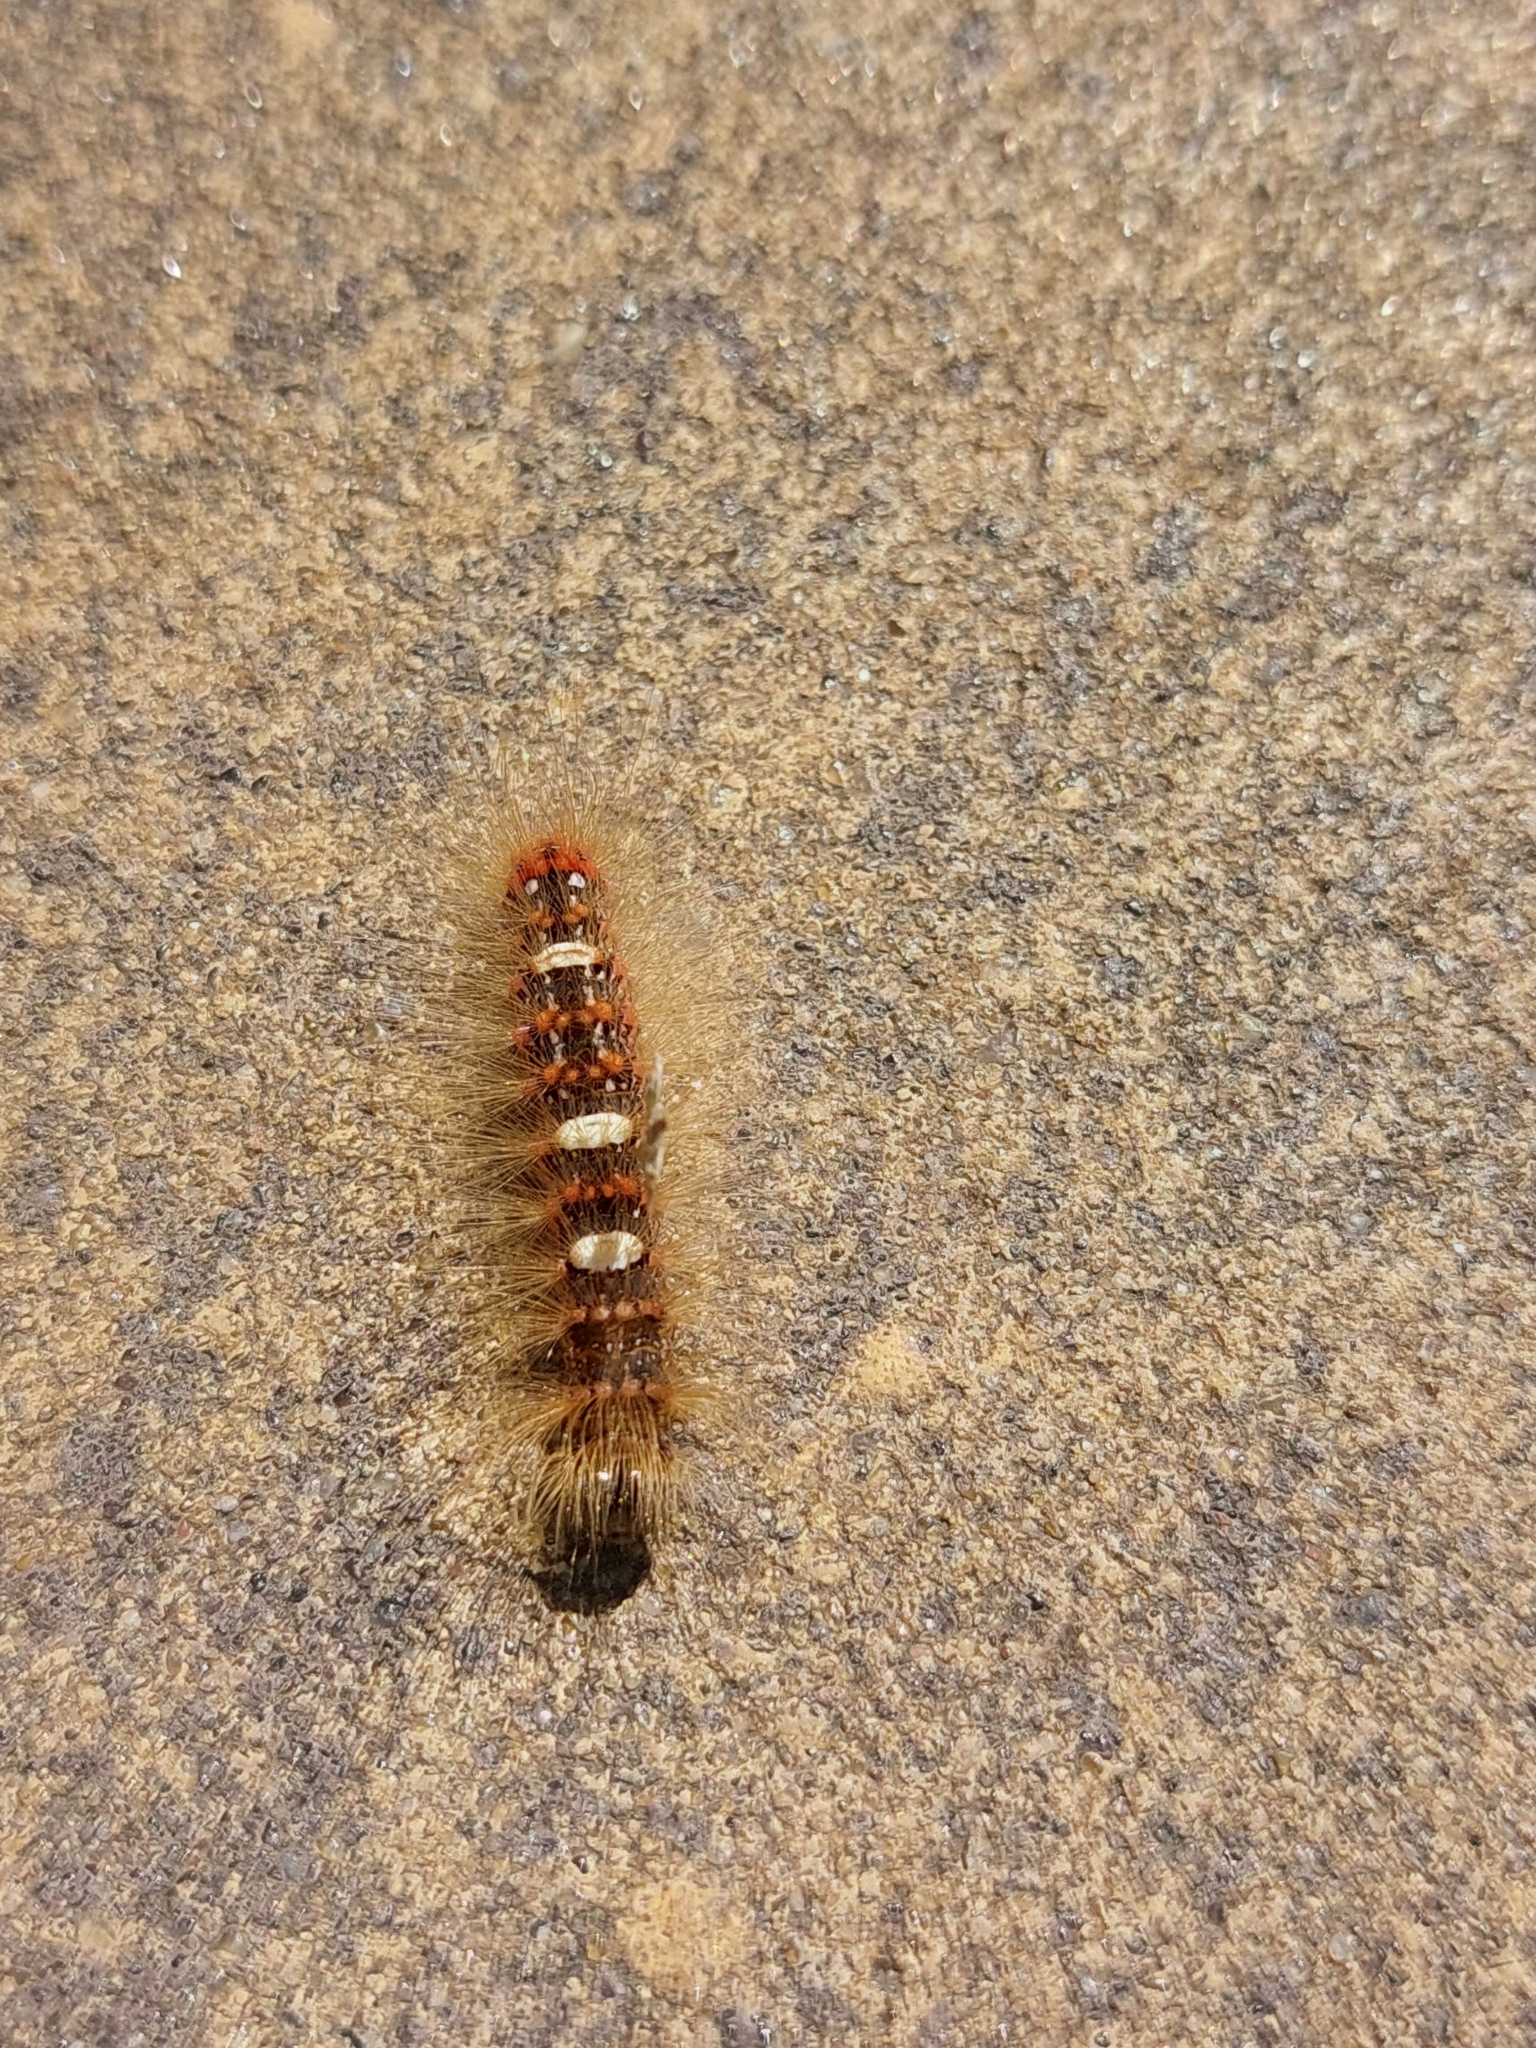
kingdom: Animalia
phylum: Arthropoda
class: Insecta
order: Lepidoptera
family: Noctuidae
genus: Moma
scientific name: Moma alpium
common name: Scarce merveille du jour
